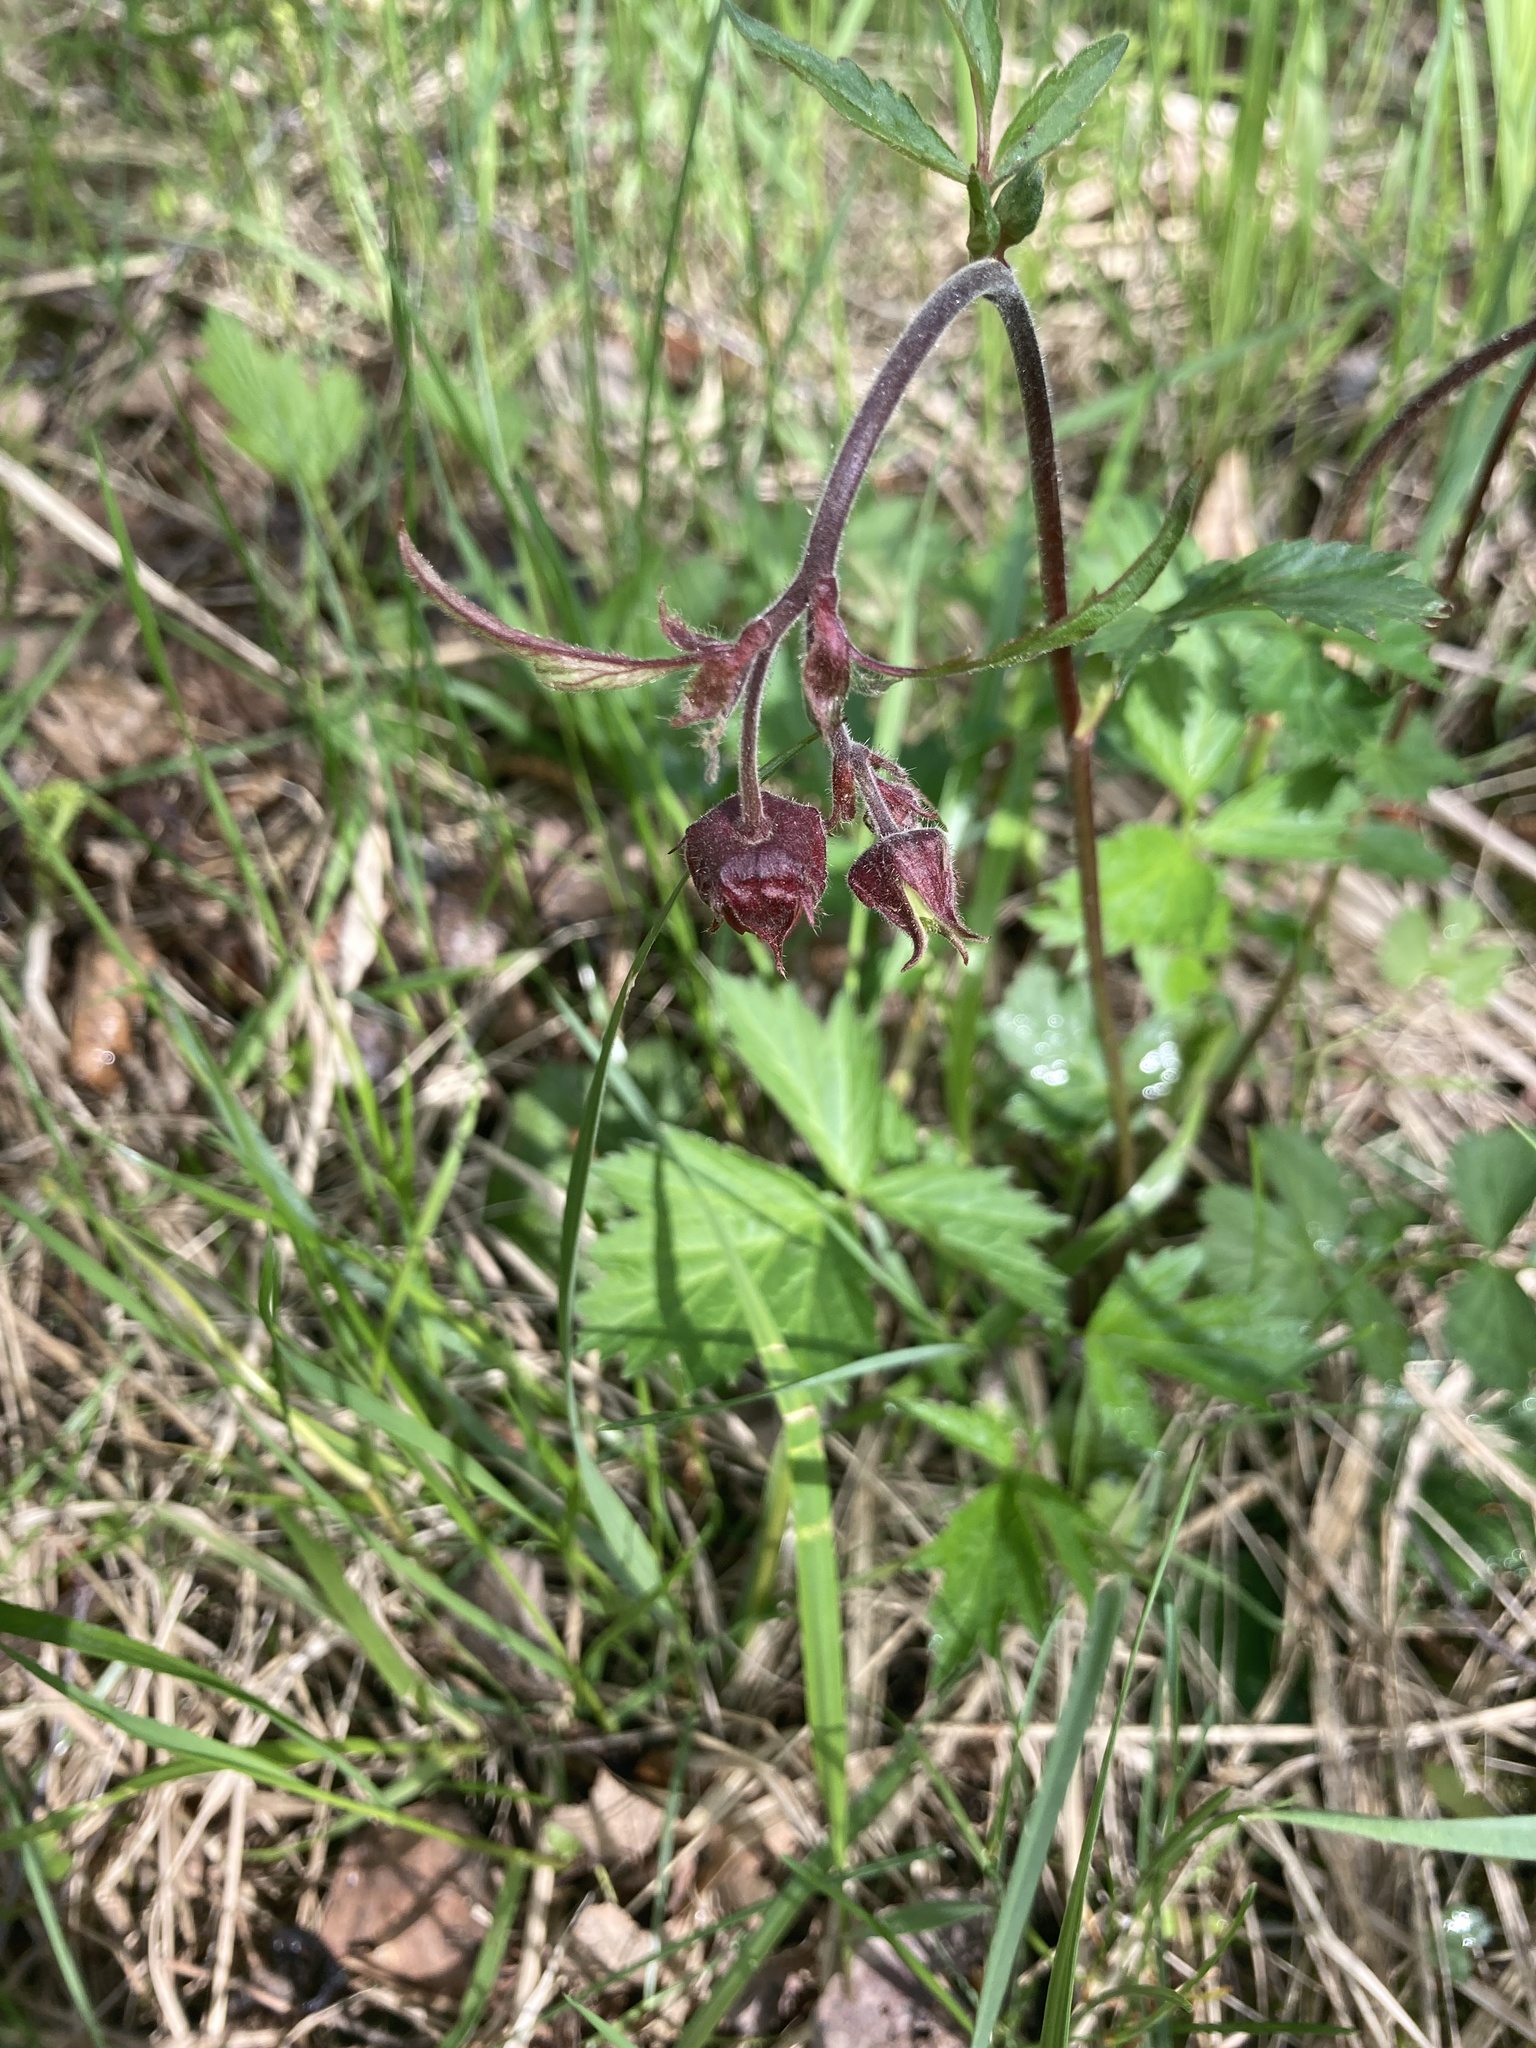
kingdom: Plantae
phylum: Tracheophyta
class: Magnoliopsida
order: Rosales
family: Rosaceae
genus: Geum
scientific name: Geum rivale
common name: Water avens
